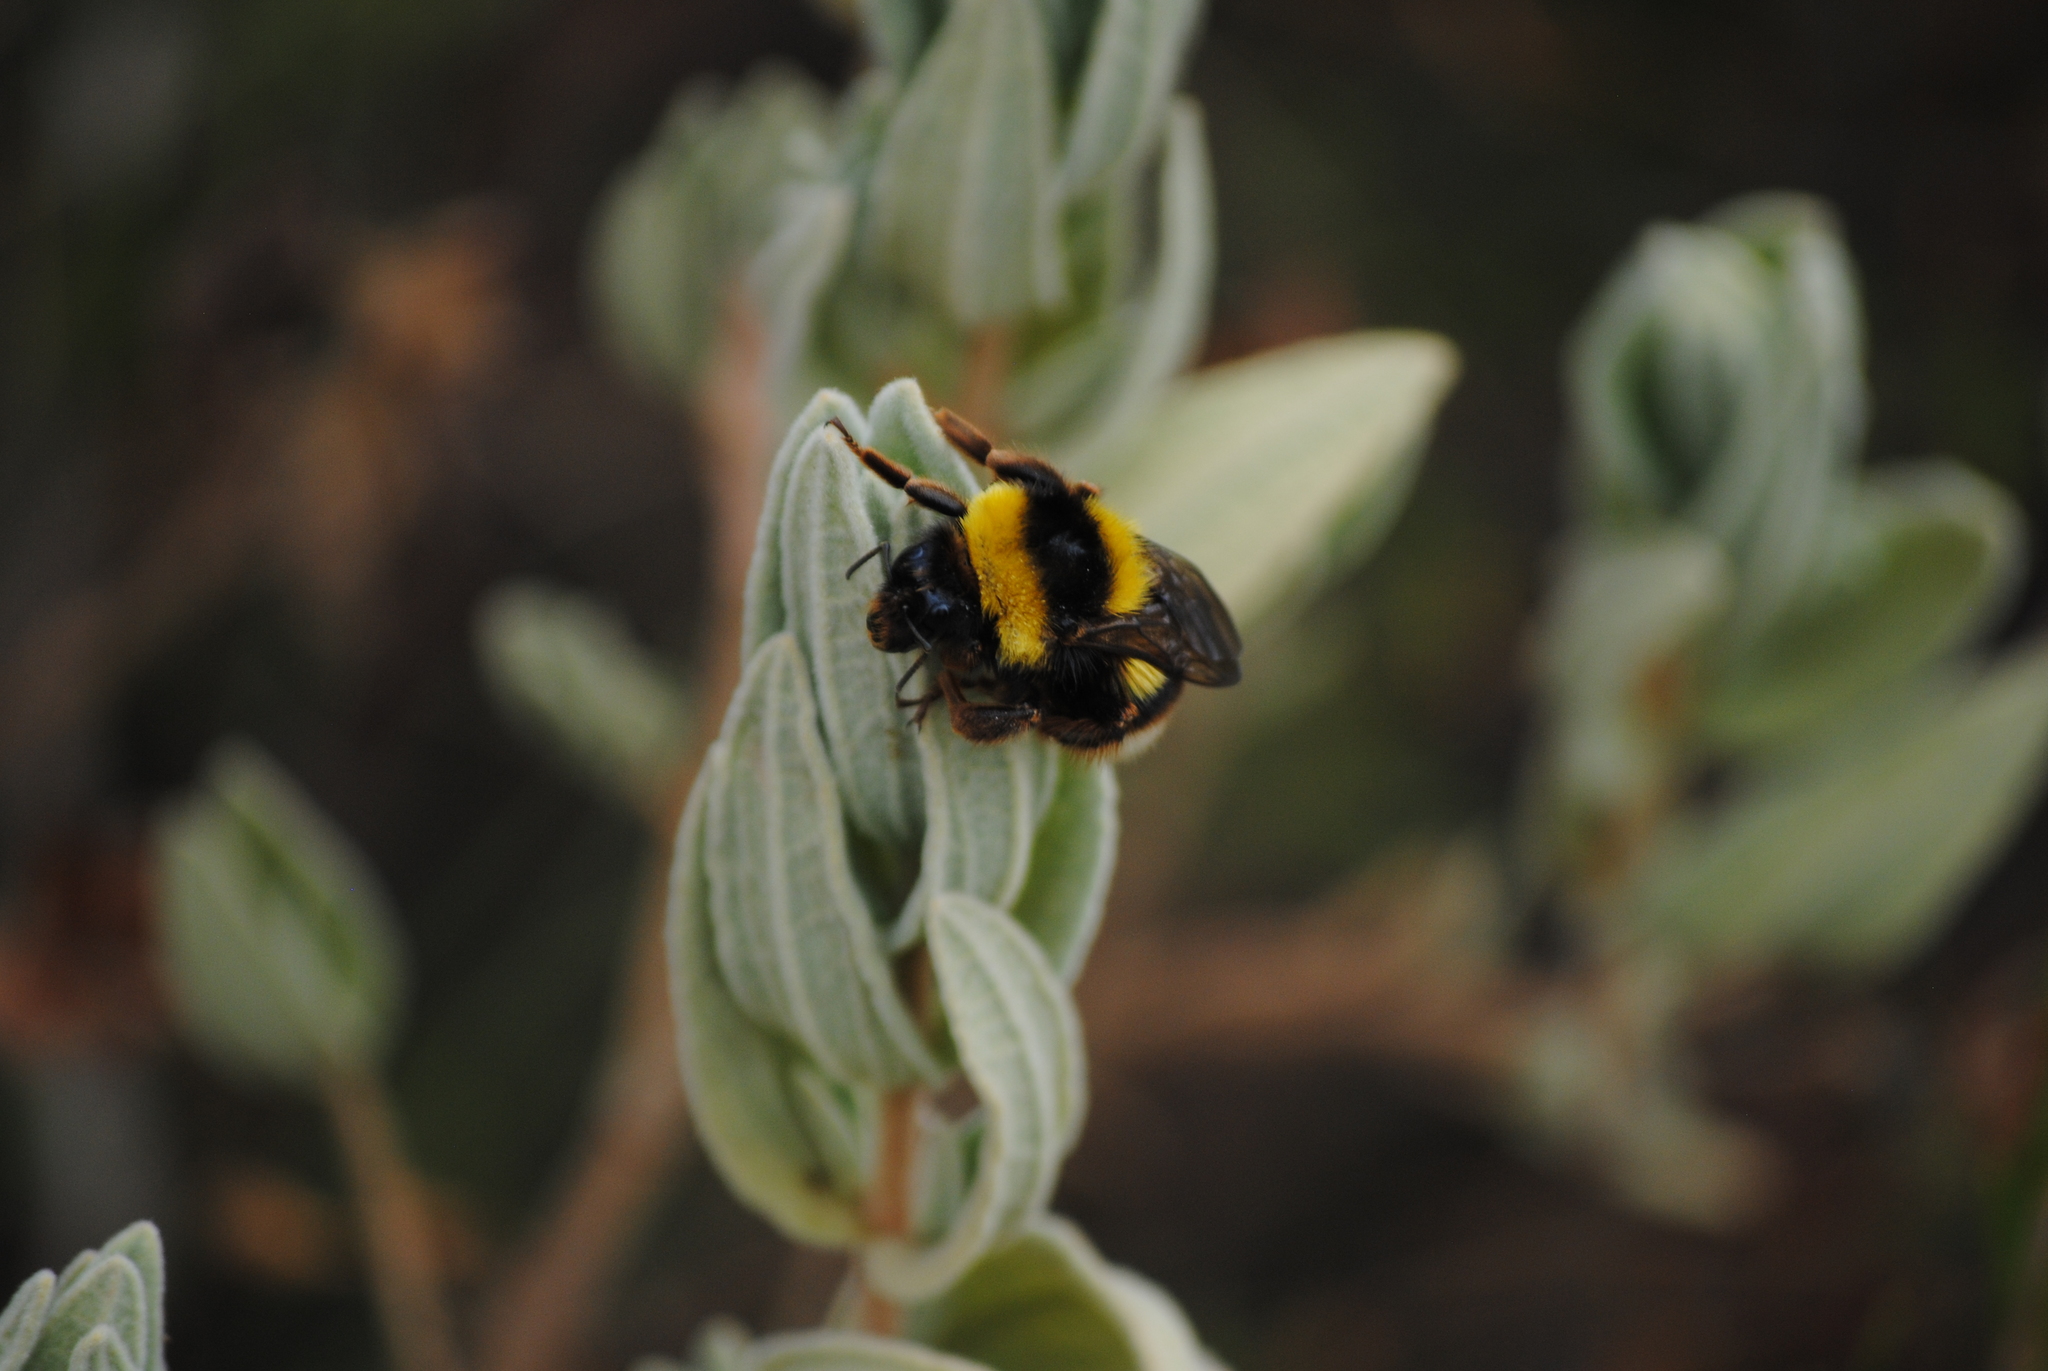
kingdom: Animalia
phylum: Arthropoda
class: Insecta
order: Hymenoptera
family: Apidae
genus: Bombus
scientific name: Bombus ruderatus
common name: Large garden bumblebee
